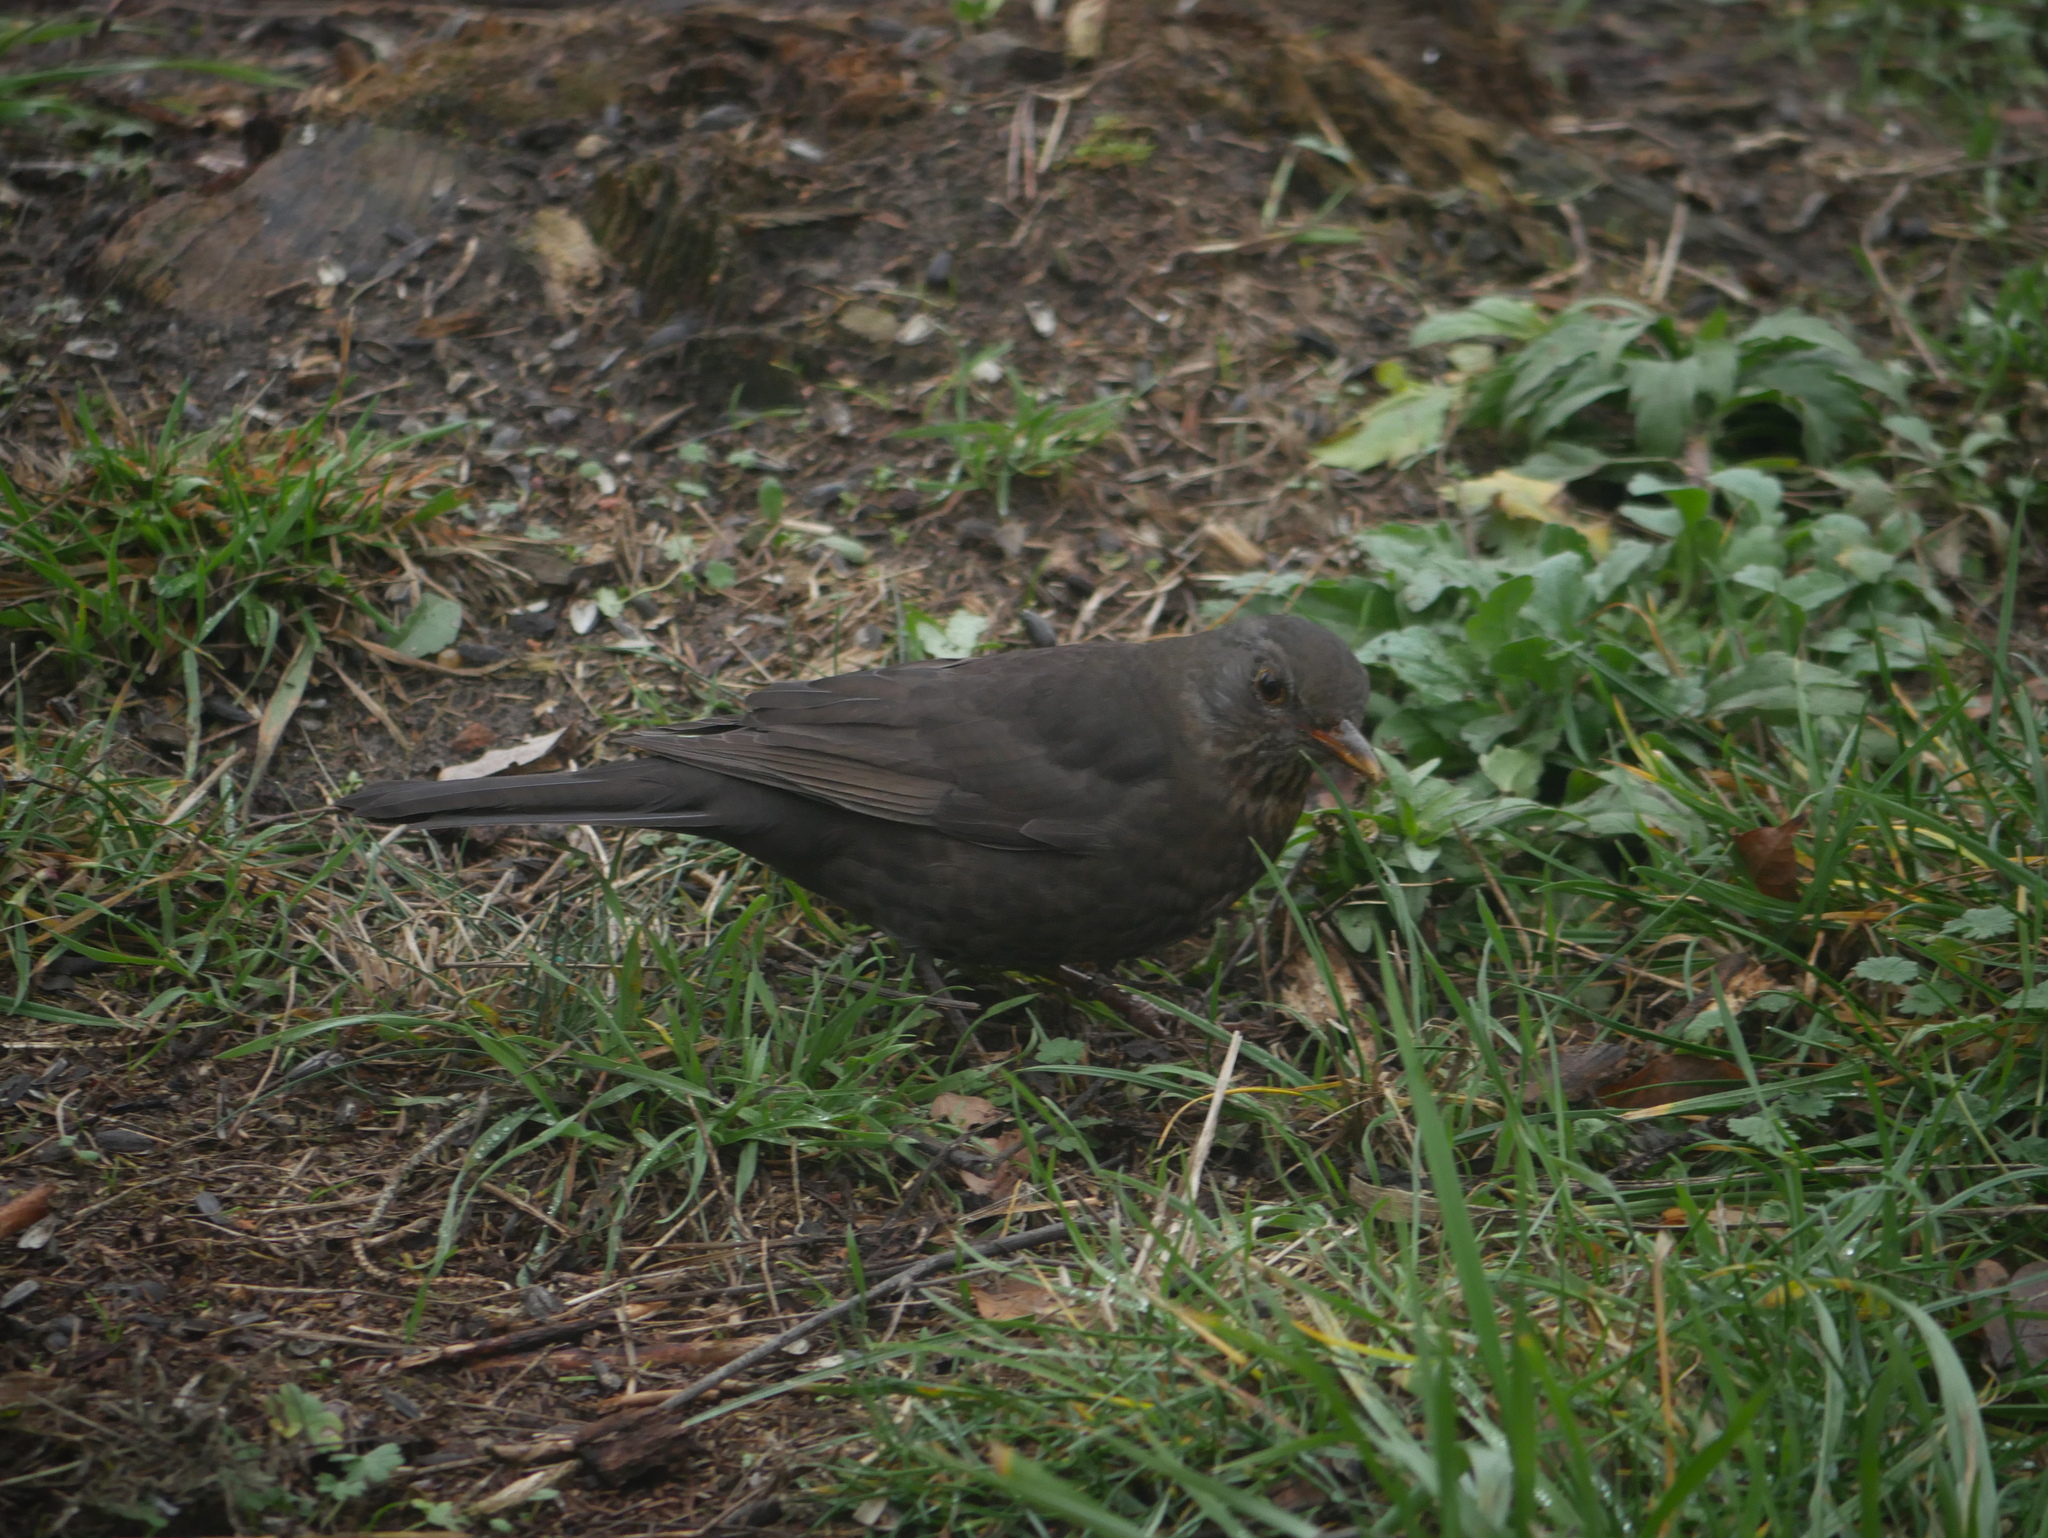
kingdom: Animalia
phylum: Chordata
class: Aves
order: Passeriformes
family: Turdidae
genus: Turdus
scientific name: Turdus merula
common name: Common blackbird
